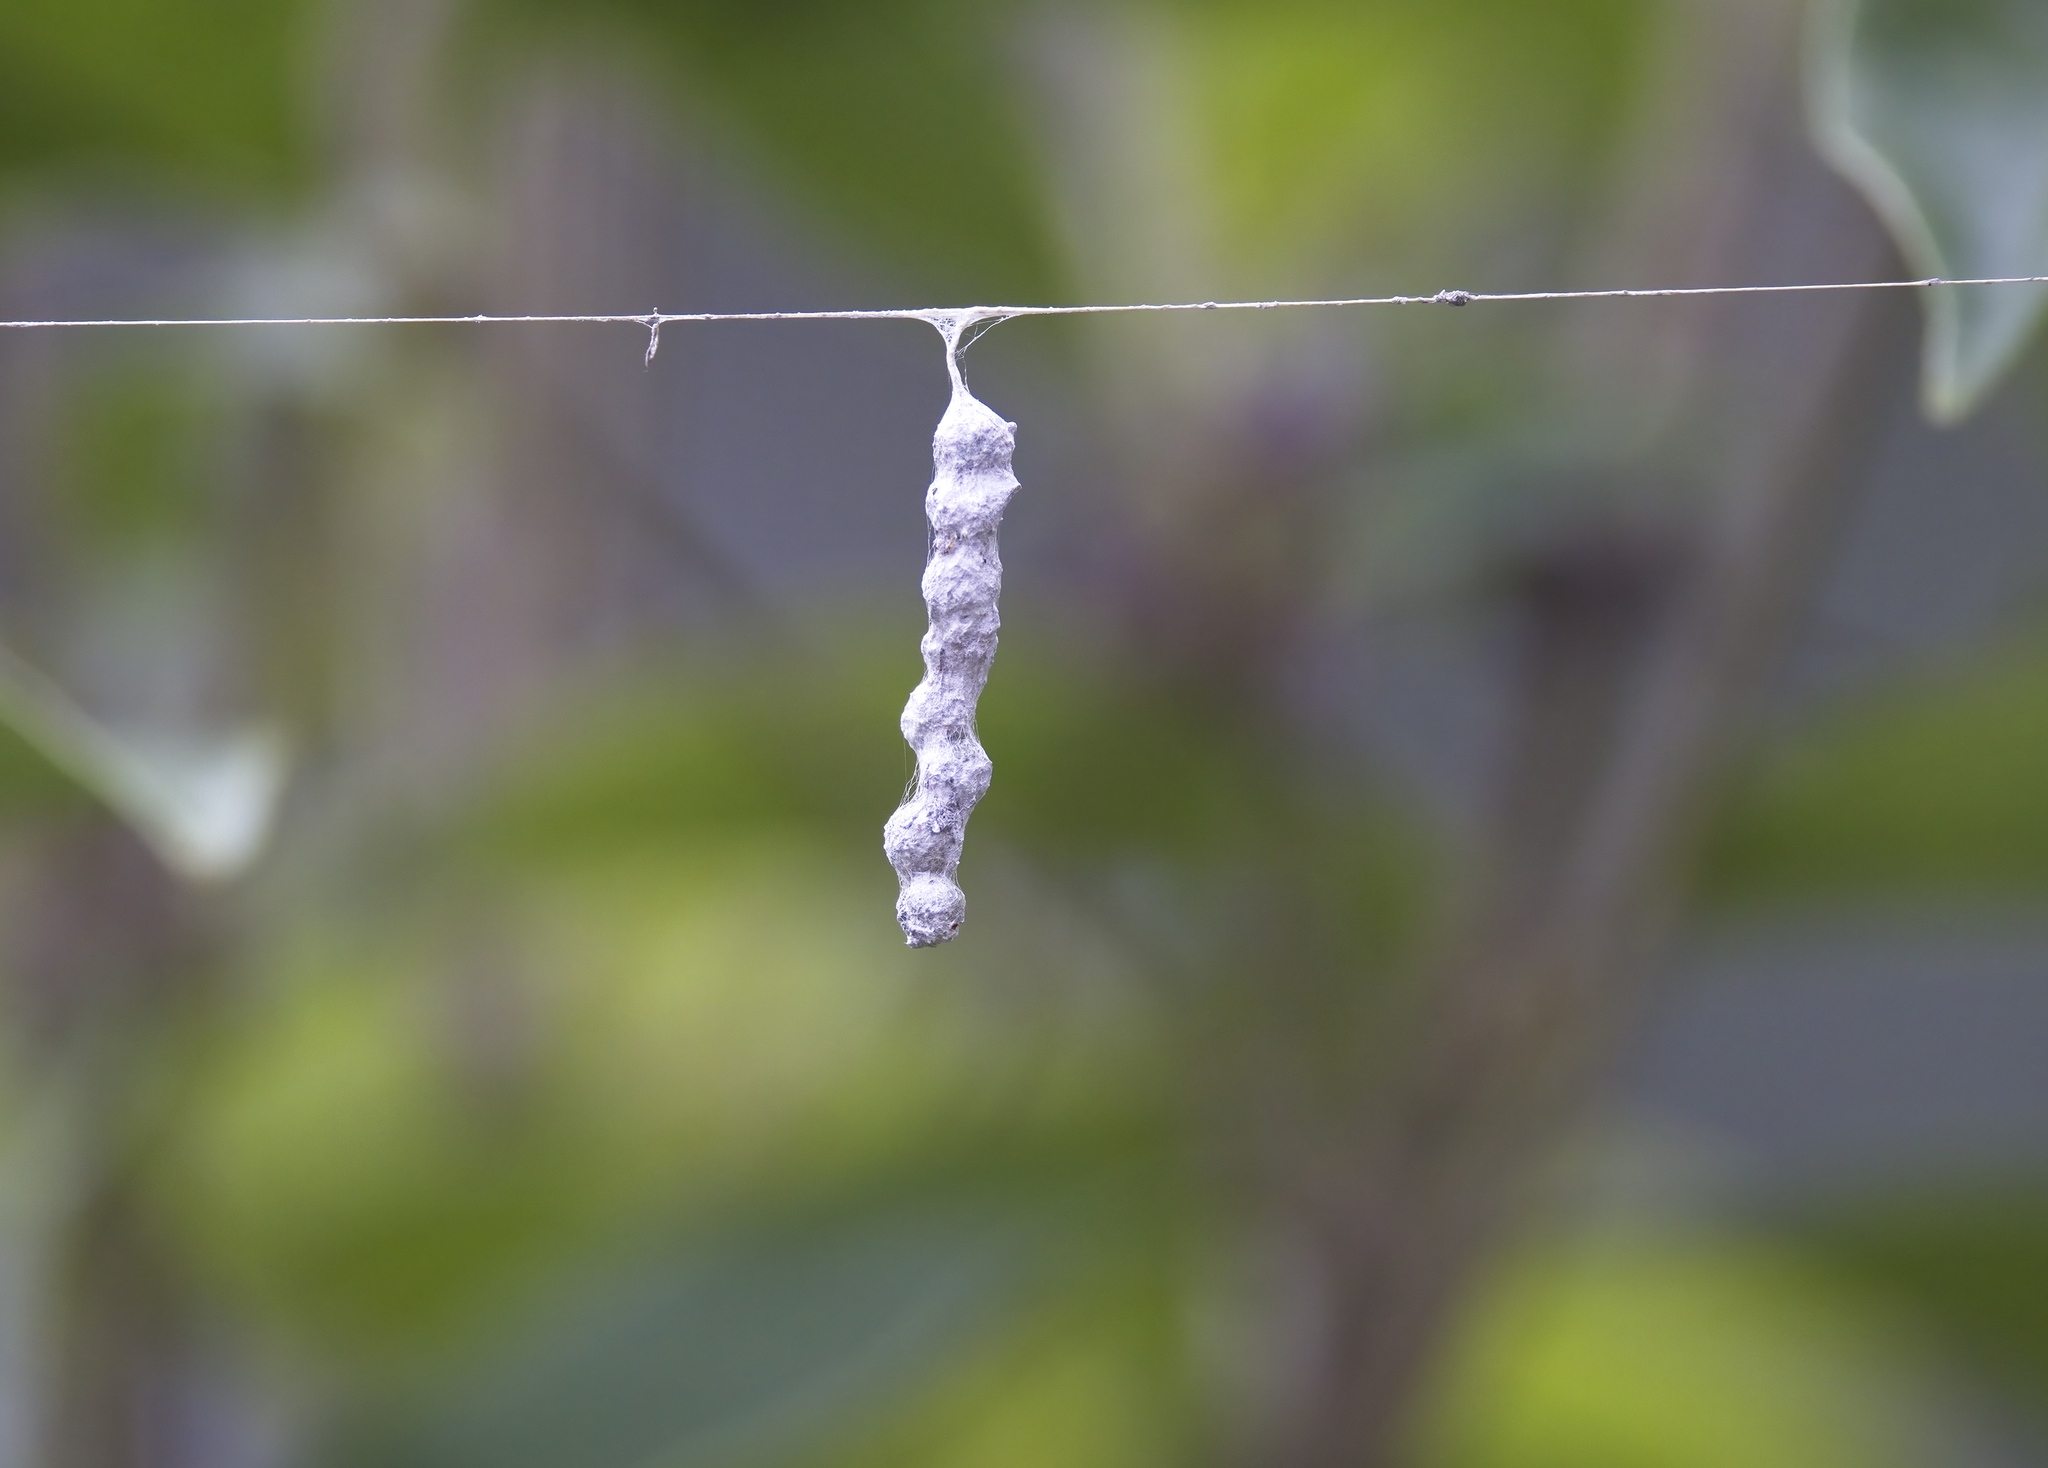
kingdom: Animalia
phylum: Arthropoda
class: Arachnida
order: Araneae
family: Araneidae
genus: Mecynogea
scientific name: Mecynogea lemniscata
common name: Orb weavers
